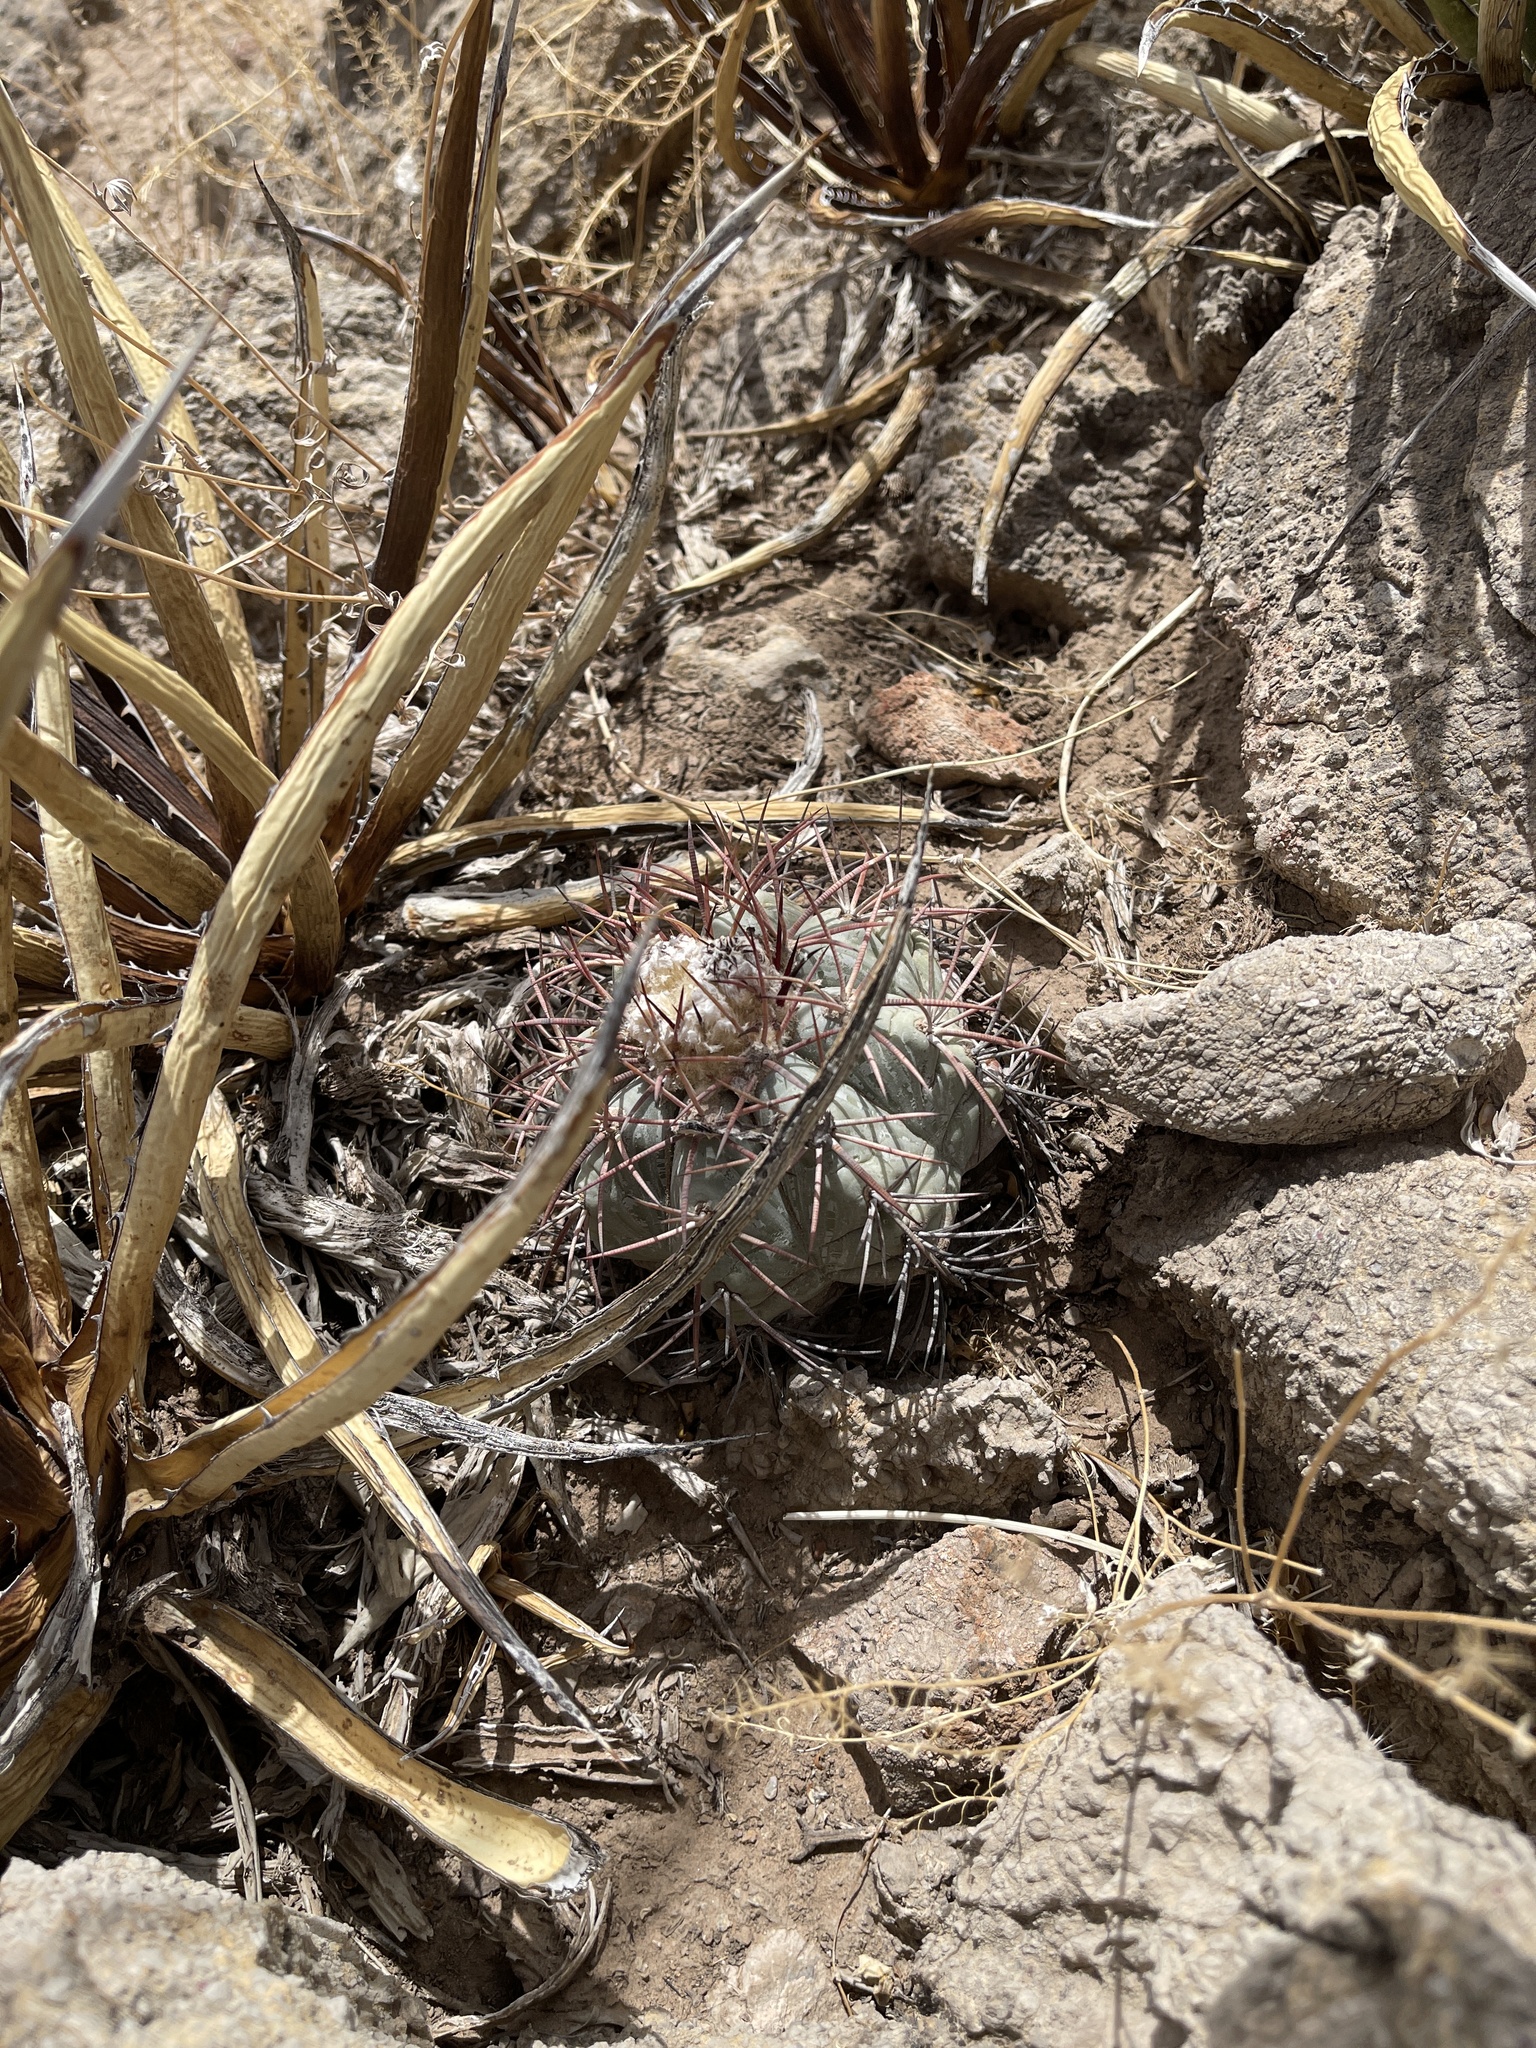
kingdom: Plantae
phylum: Tracheophyta
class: Magnoliopsida
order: Caryophyllales
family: Cactaceae
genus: Echinocactus
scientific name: Echinocactus horizonthalonius
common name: Devilshead
